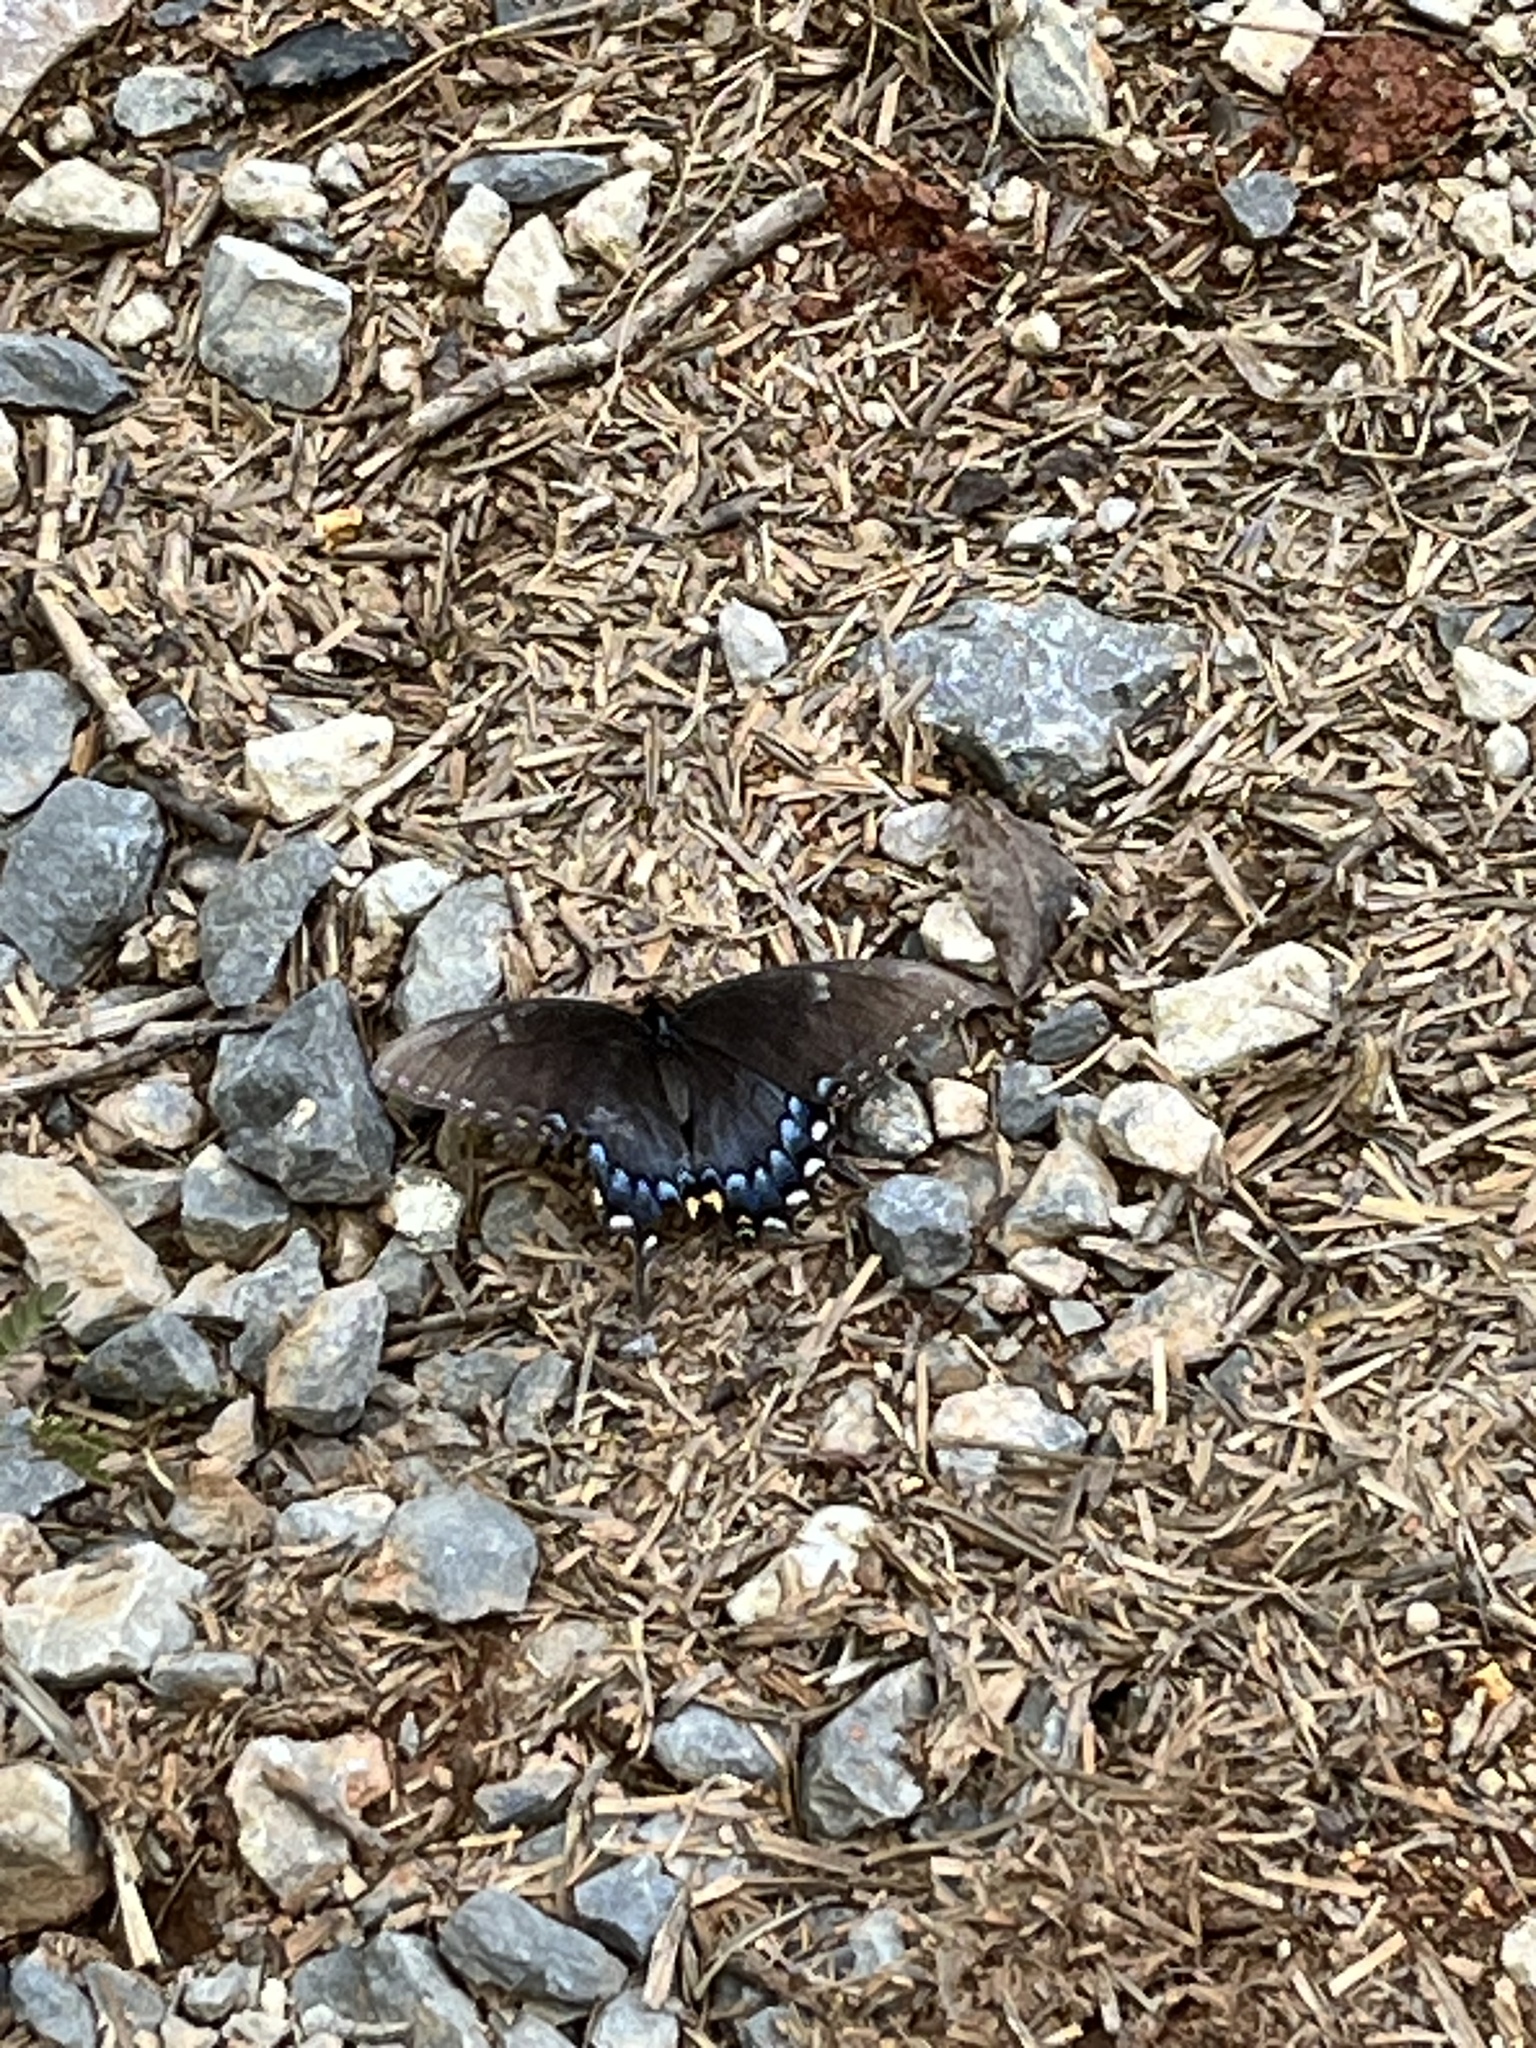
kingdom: Animalia
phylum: Arthropoda
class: Insecta
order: Lepidoptera
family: Papilionidae
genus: Papilio
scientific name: Papilio glaucus
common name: Tiger swallowtail
